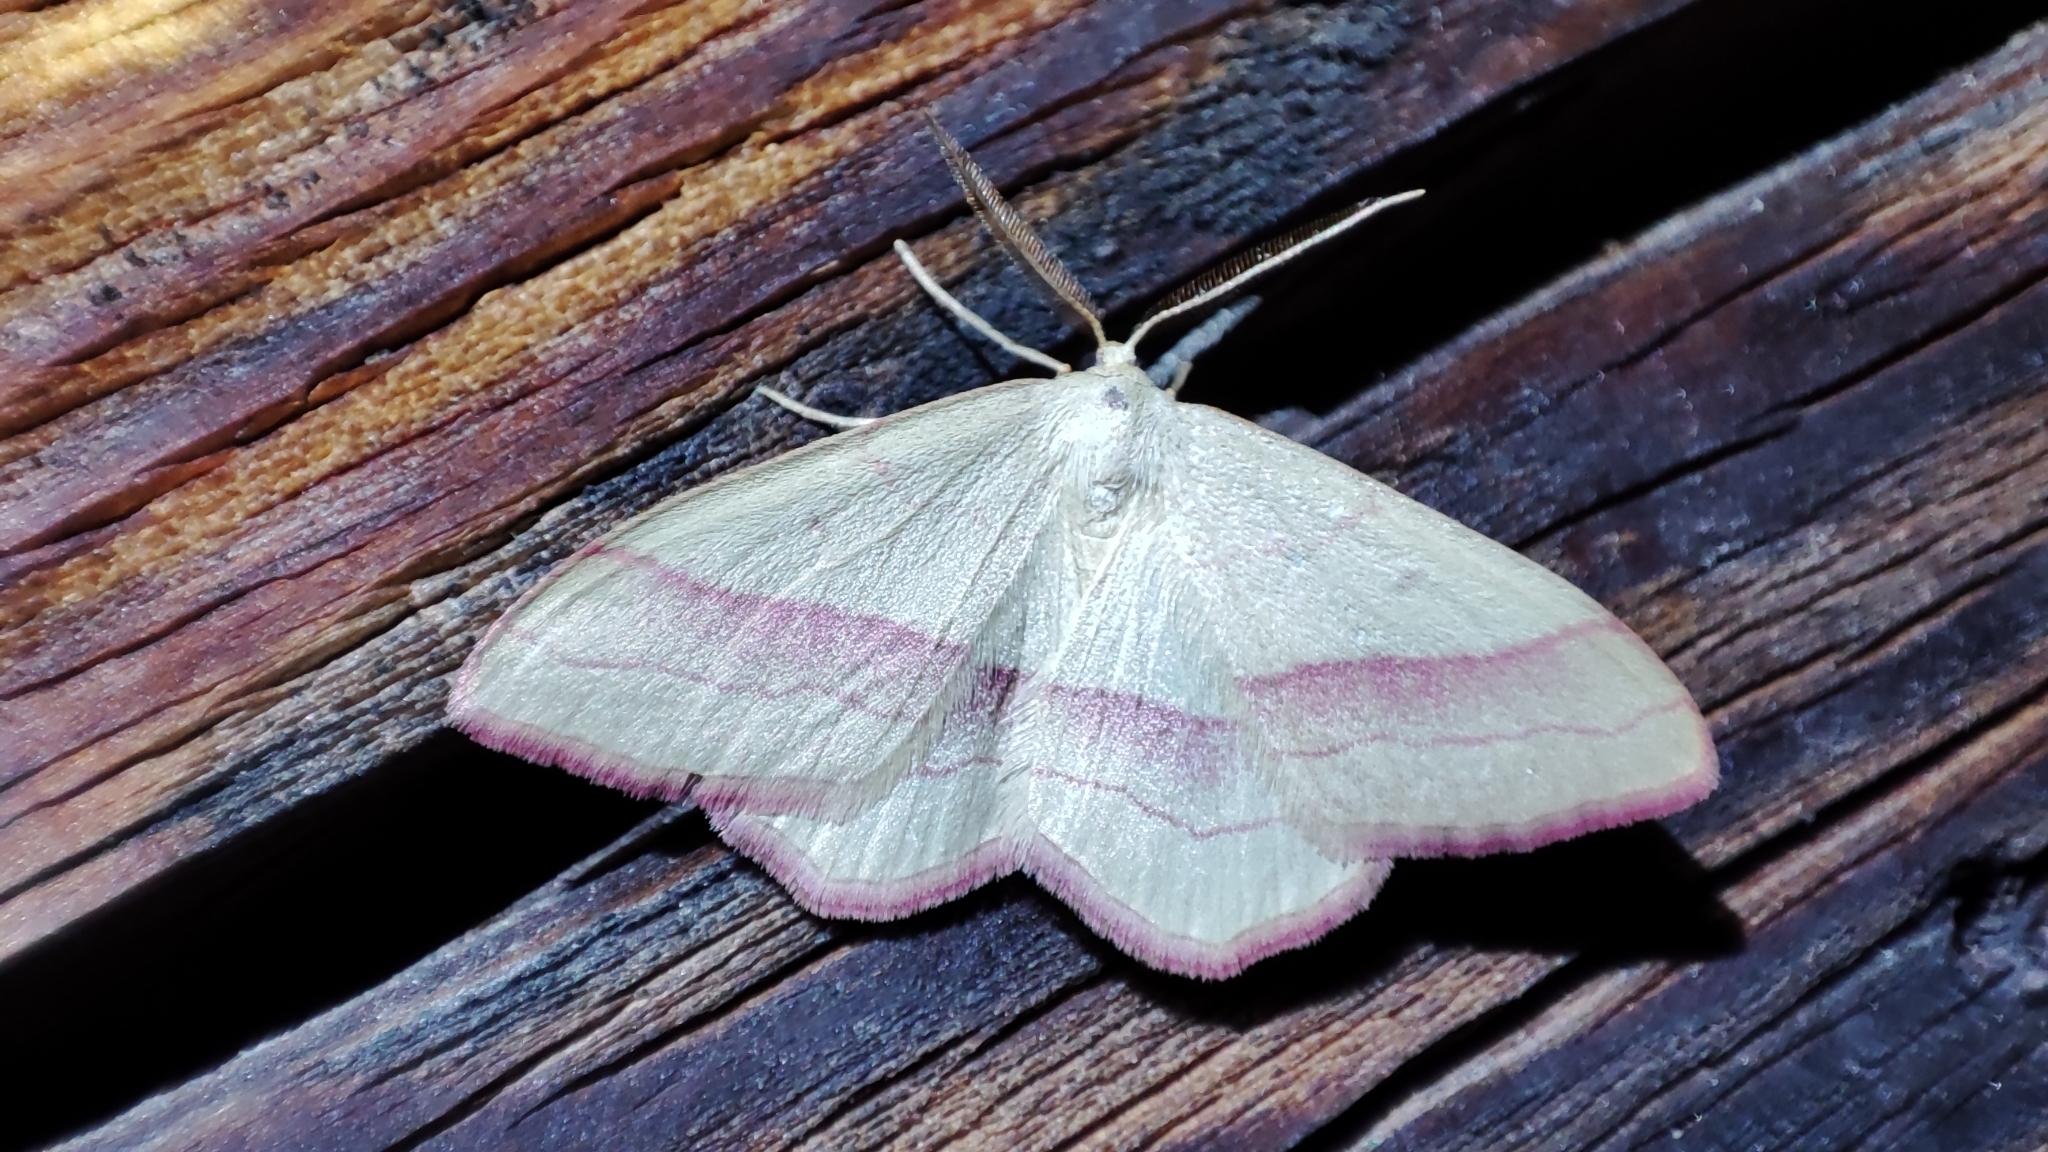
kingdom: Animalia
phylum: Arthropoda
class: Insecta
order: Lepidoptera
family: Geometridae
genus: Rhodostrophia
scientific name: Rhodostrophia vibicaria
